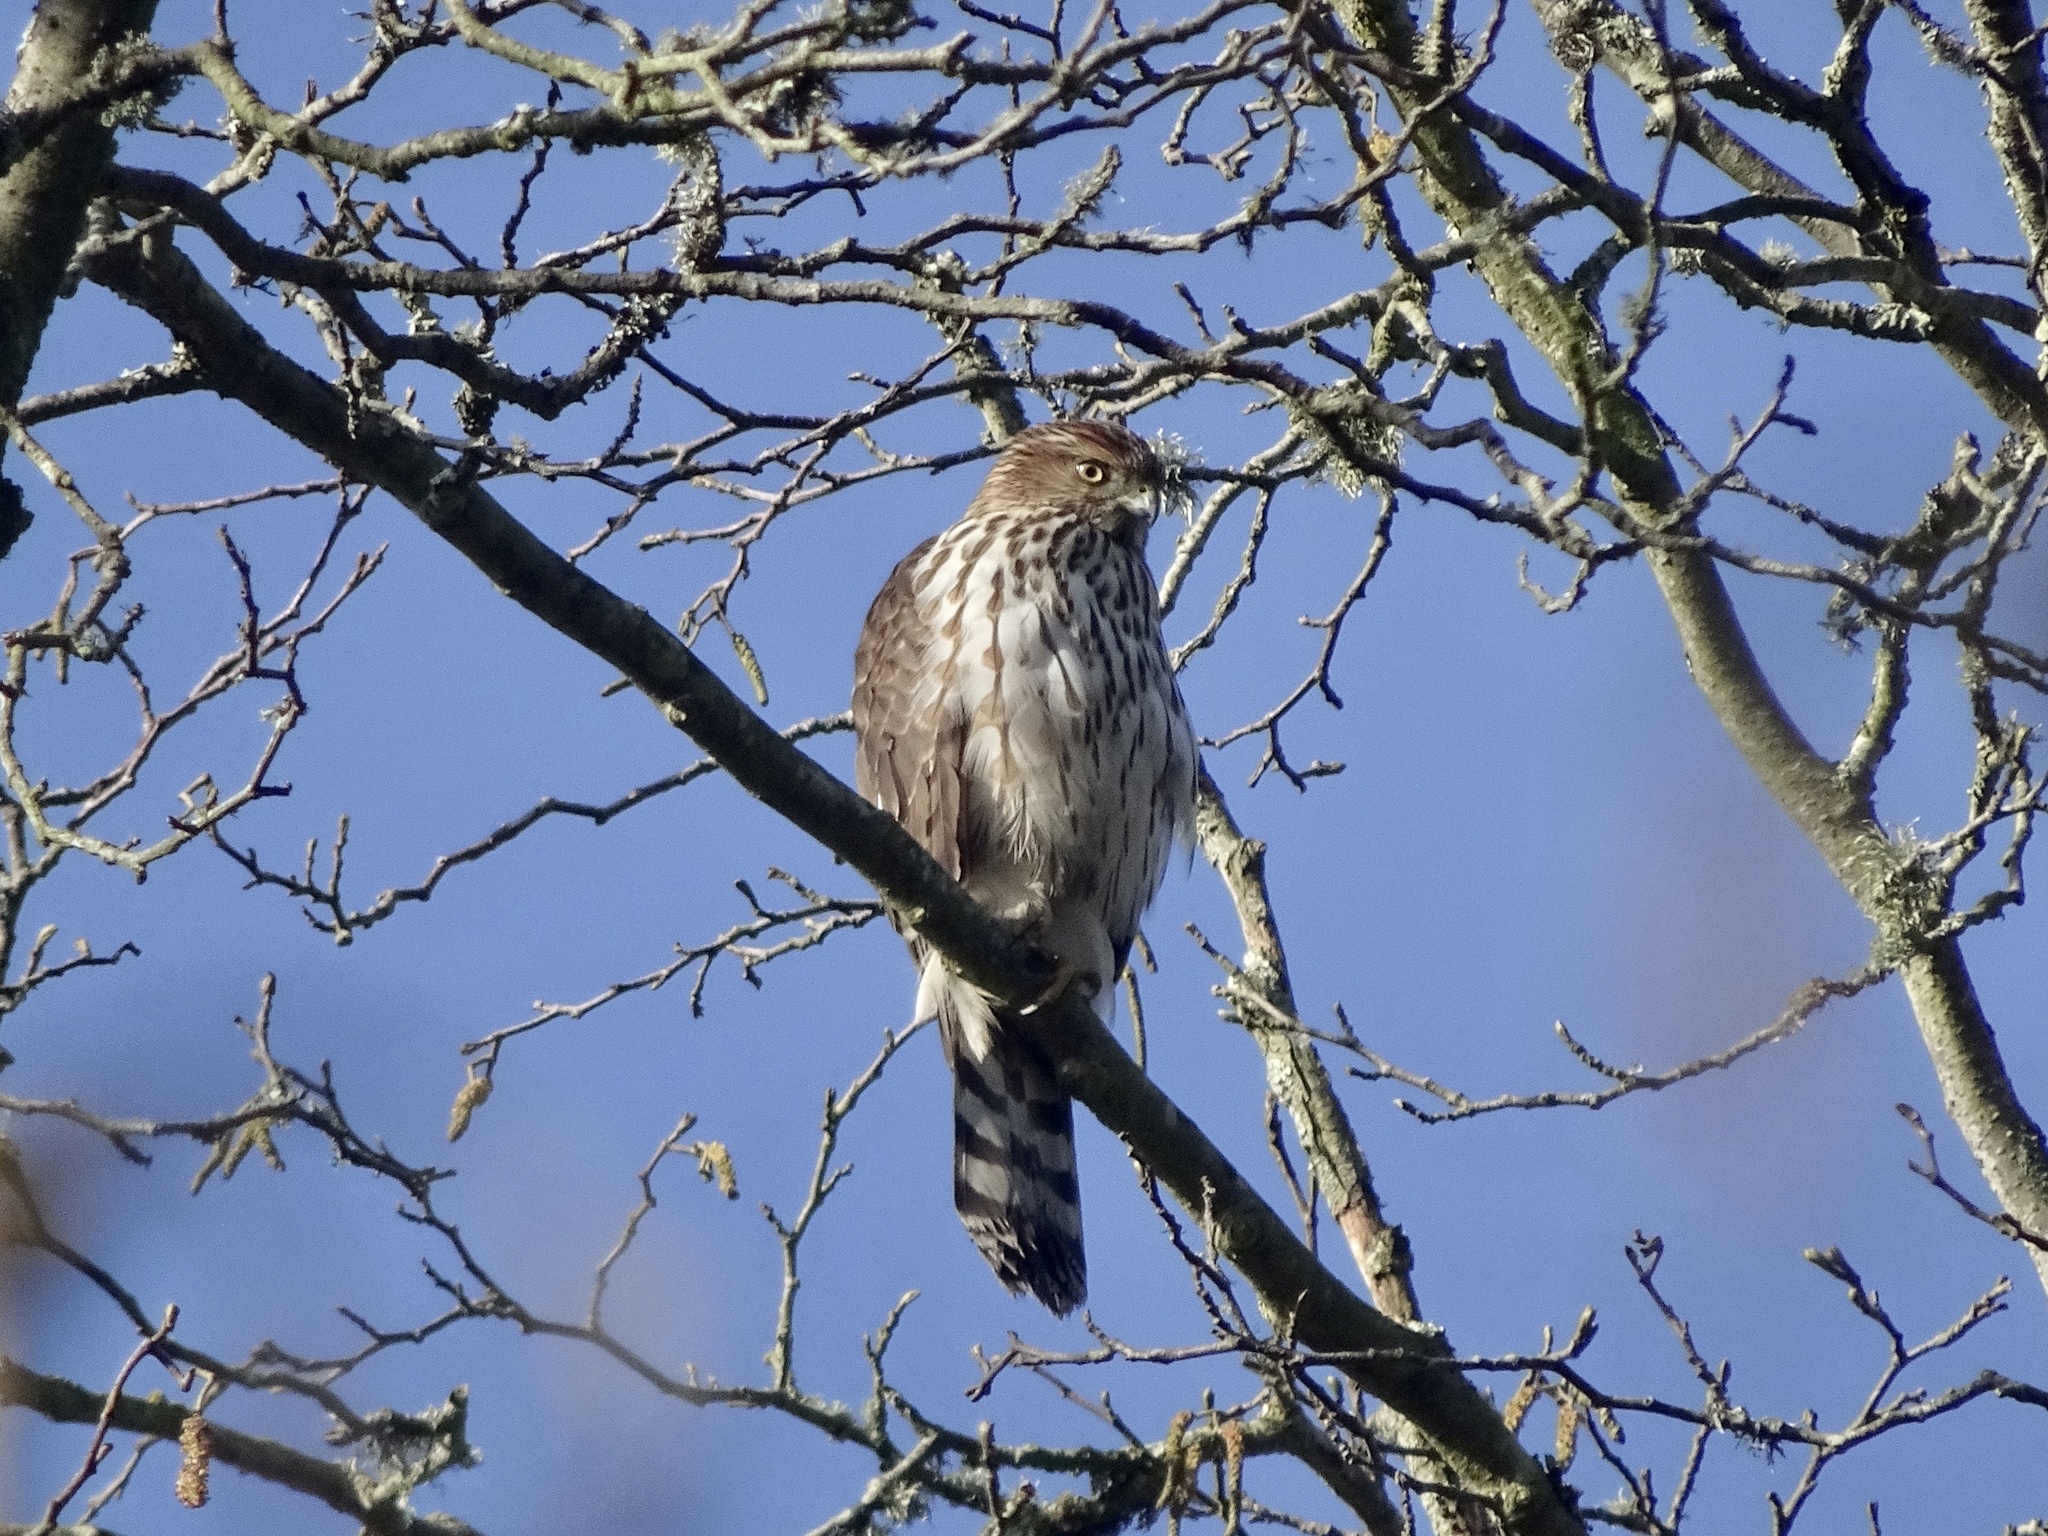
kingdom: Animalia
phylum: Chordata
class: Aves
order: Accipitriformes
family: Accipitridae
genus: Accipiter
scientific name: Accipiter cooperii
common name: Cooper's hawk
